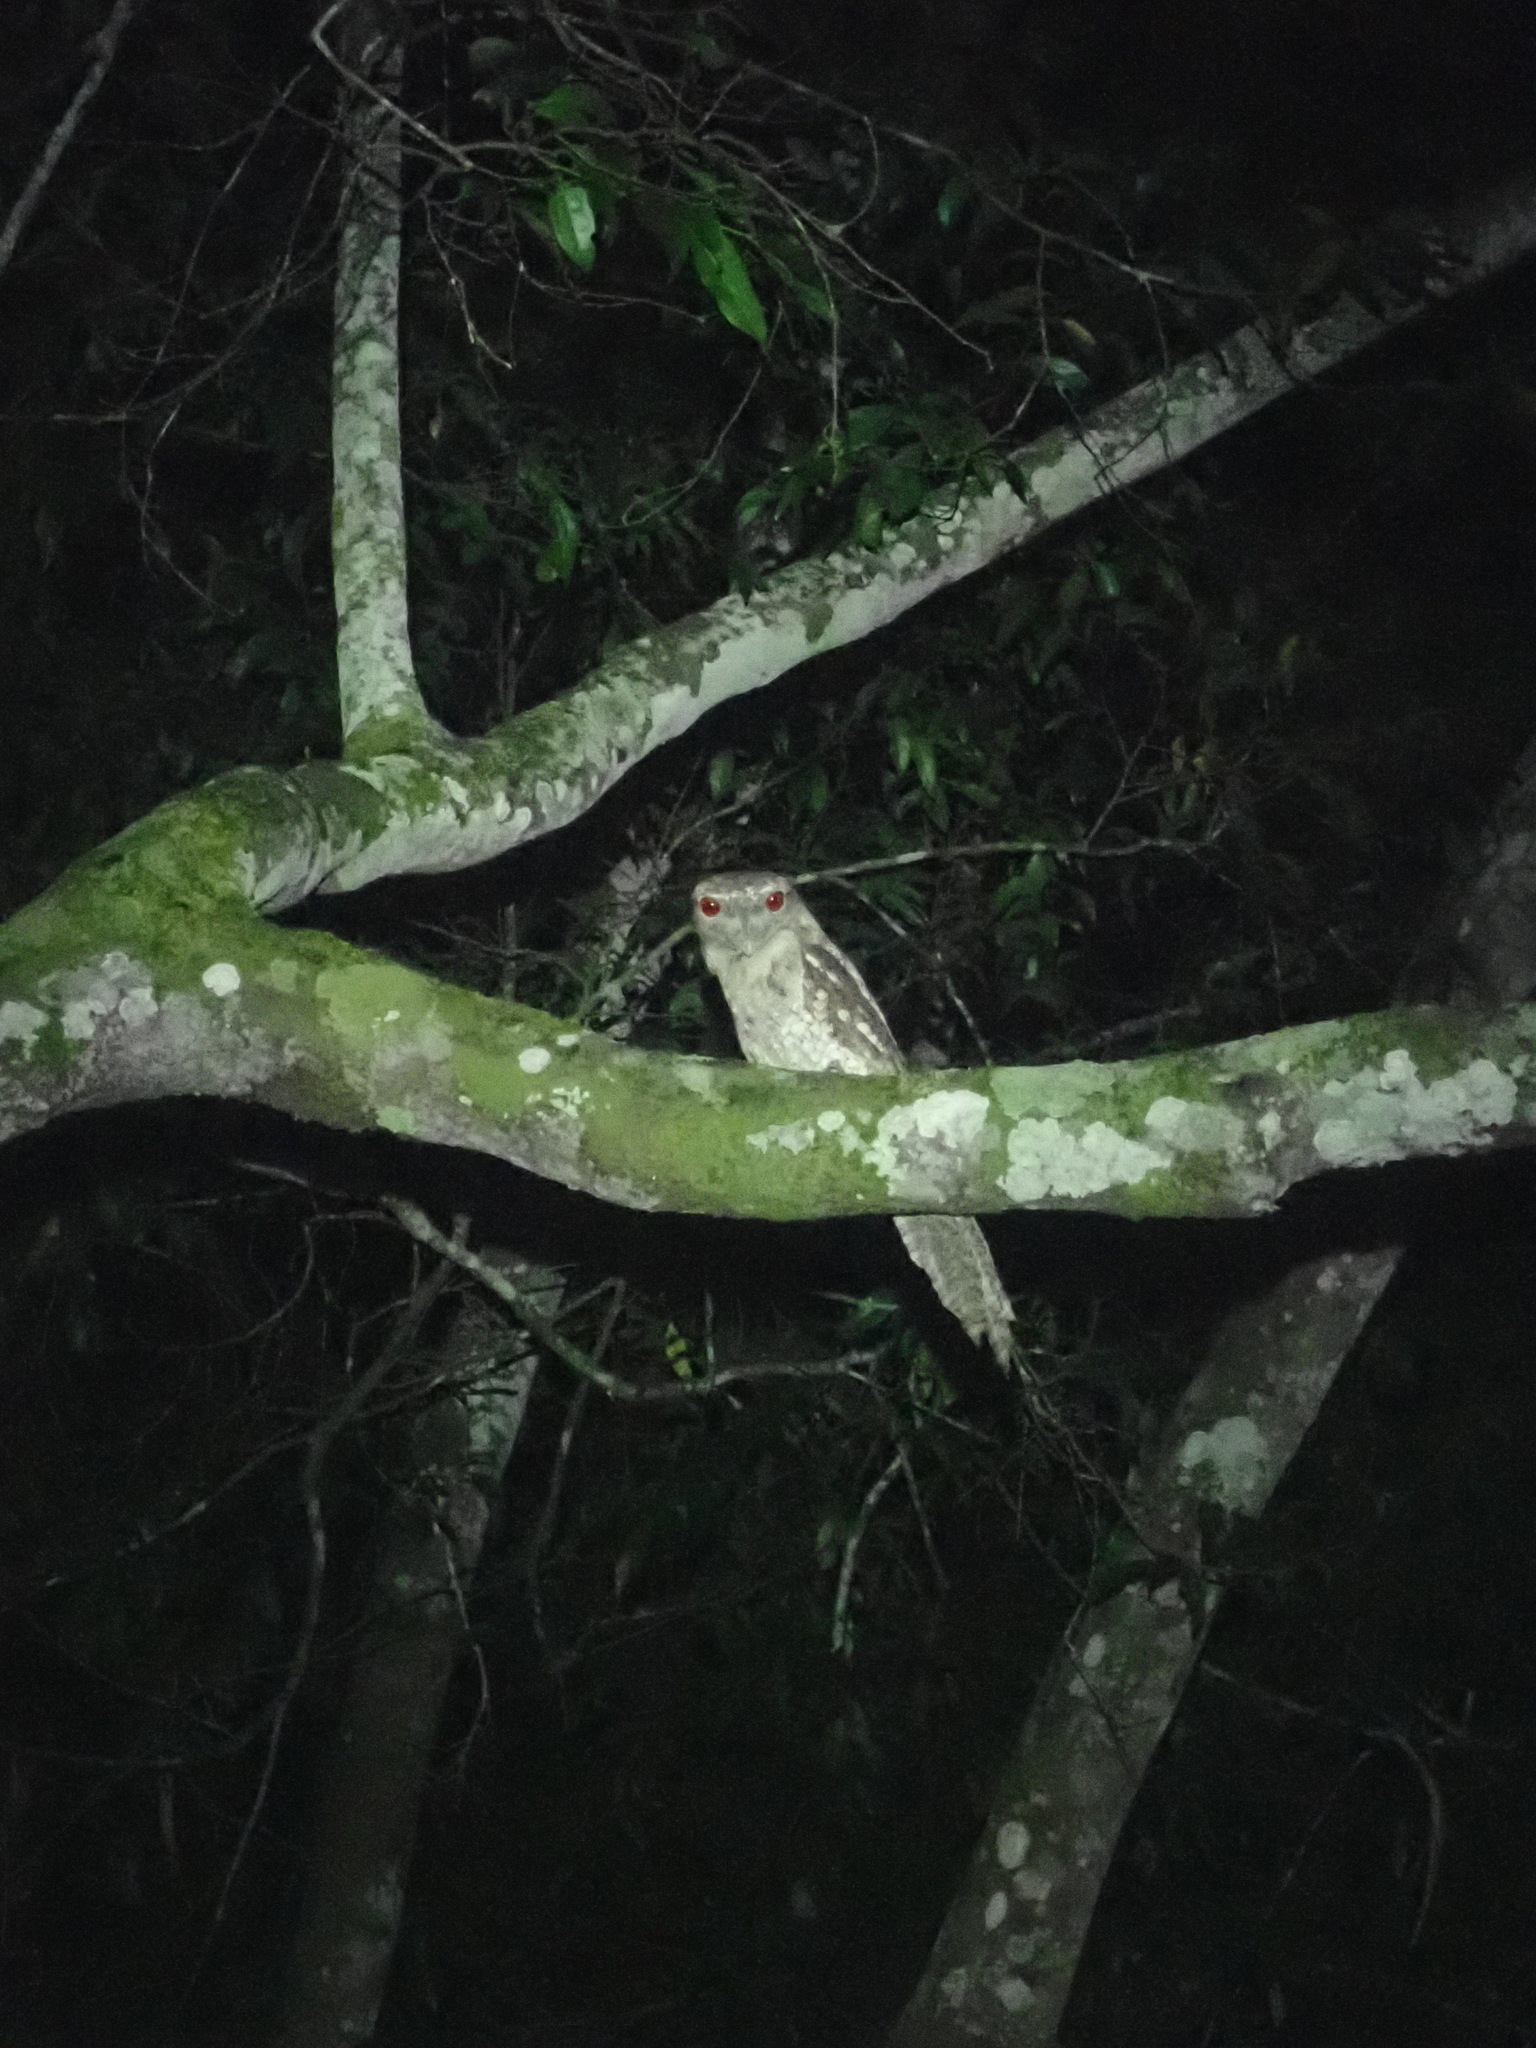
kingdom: Animalia
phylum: Chordata
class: Aves
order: Caprimulgiformes
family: Podargidae
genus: Podargus
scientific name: Podargus papuensis
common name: Papuan frogmouth
